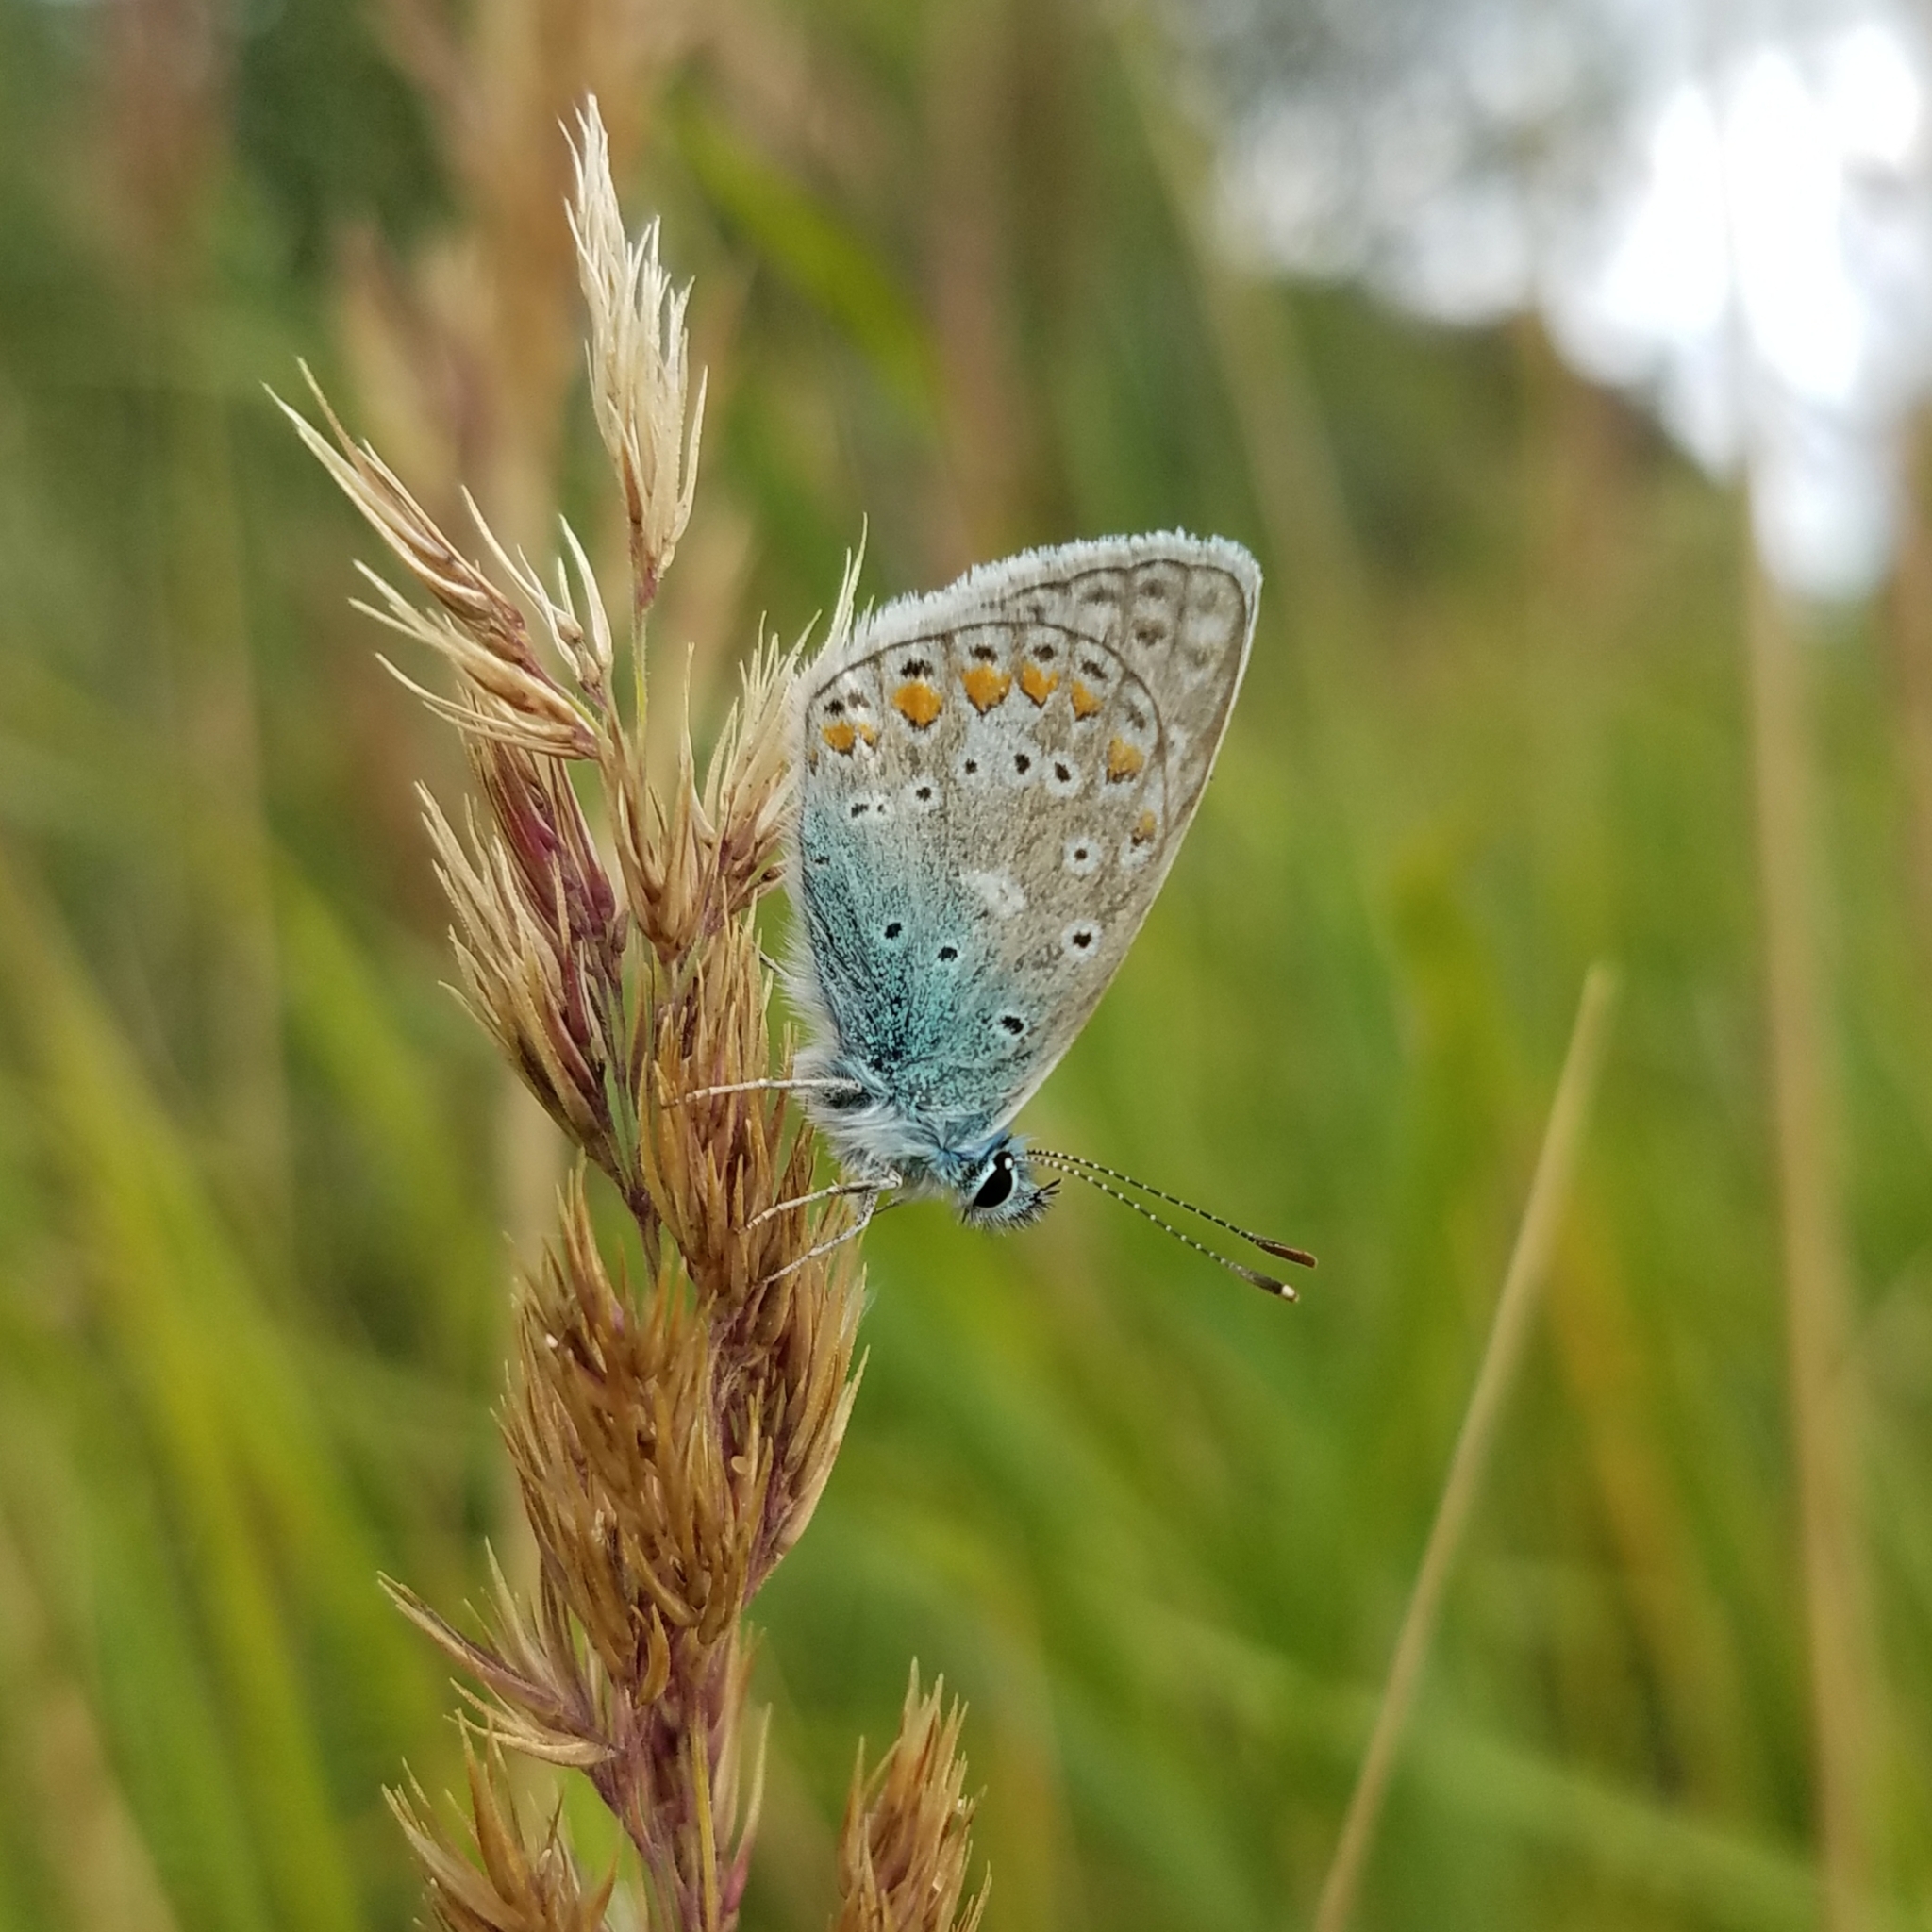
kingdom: Animalia
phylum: Arthropoda
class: Insecta
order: Lepidoptera
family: Lycaenidae
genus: Polyommatus
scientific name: Polyommatus icarus
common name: Common blue
